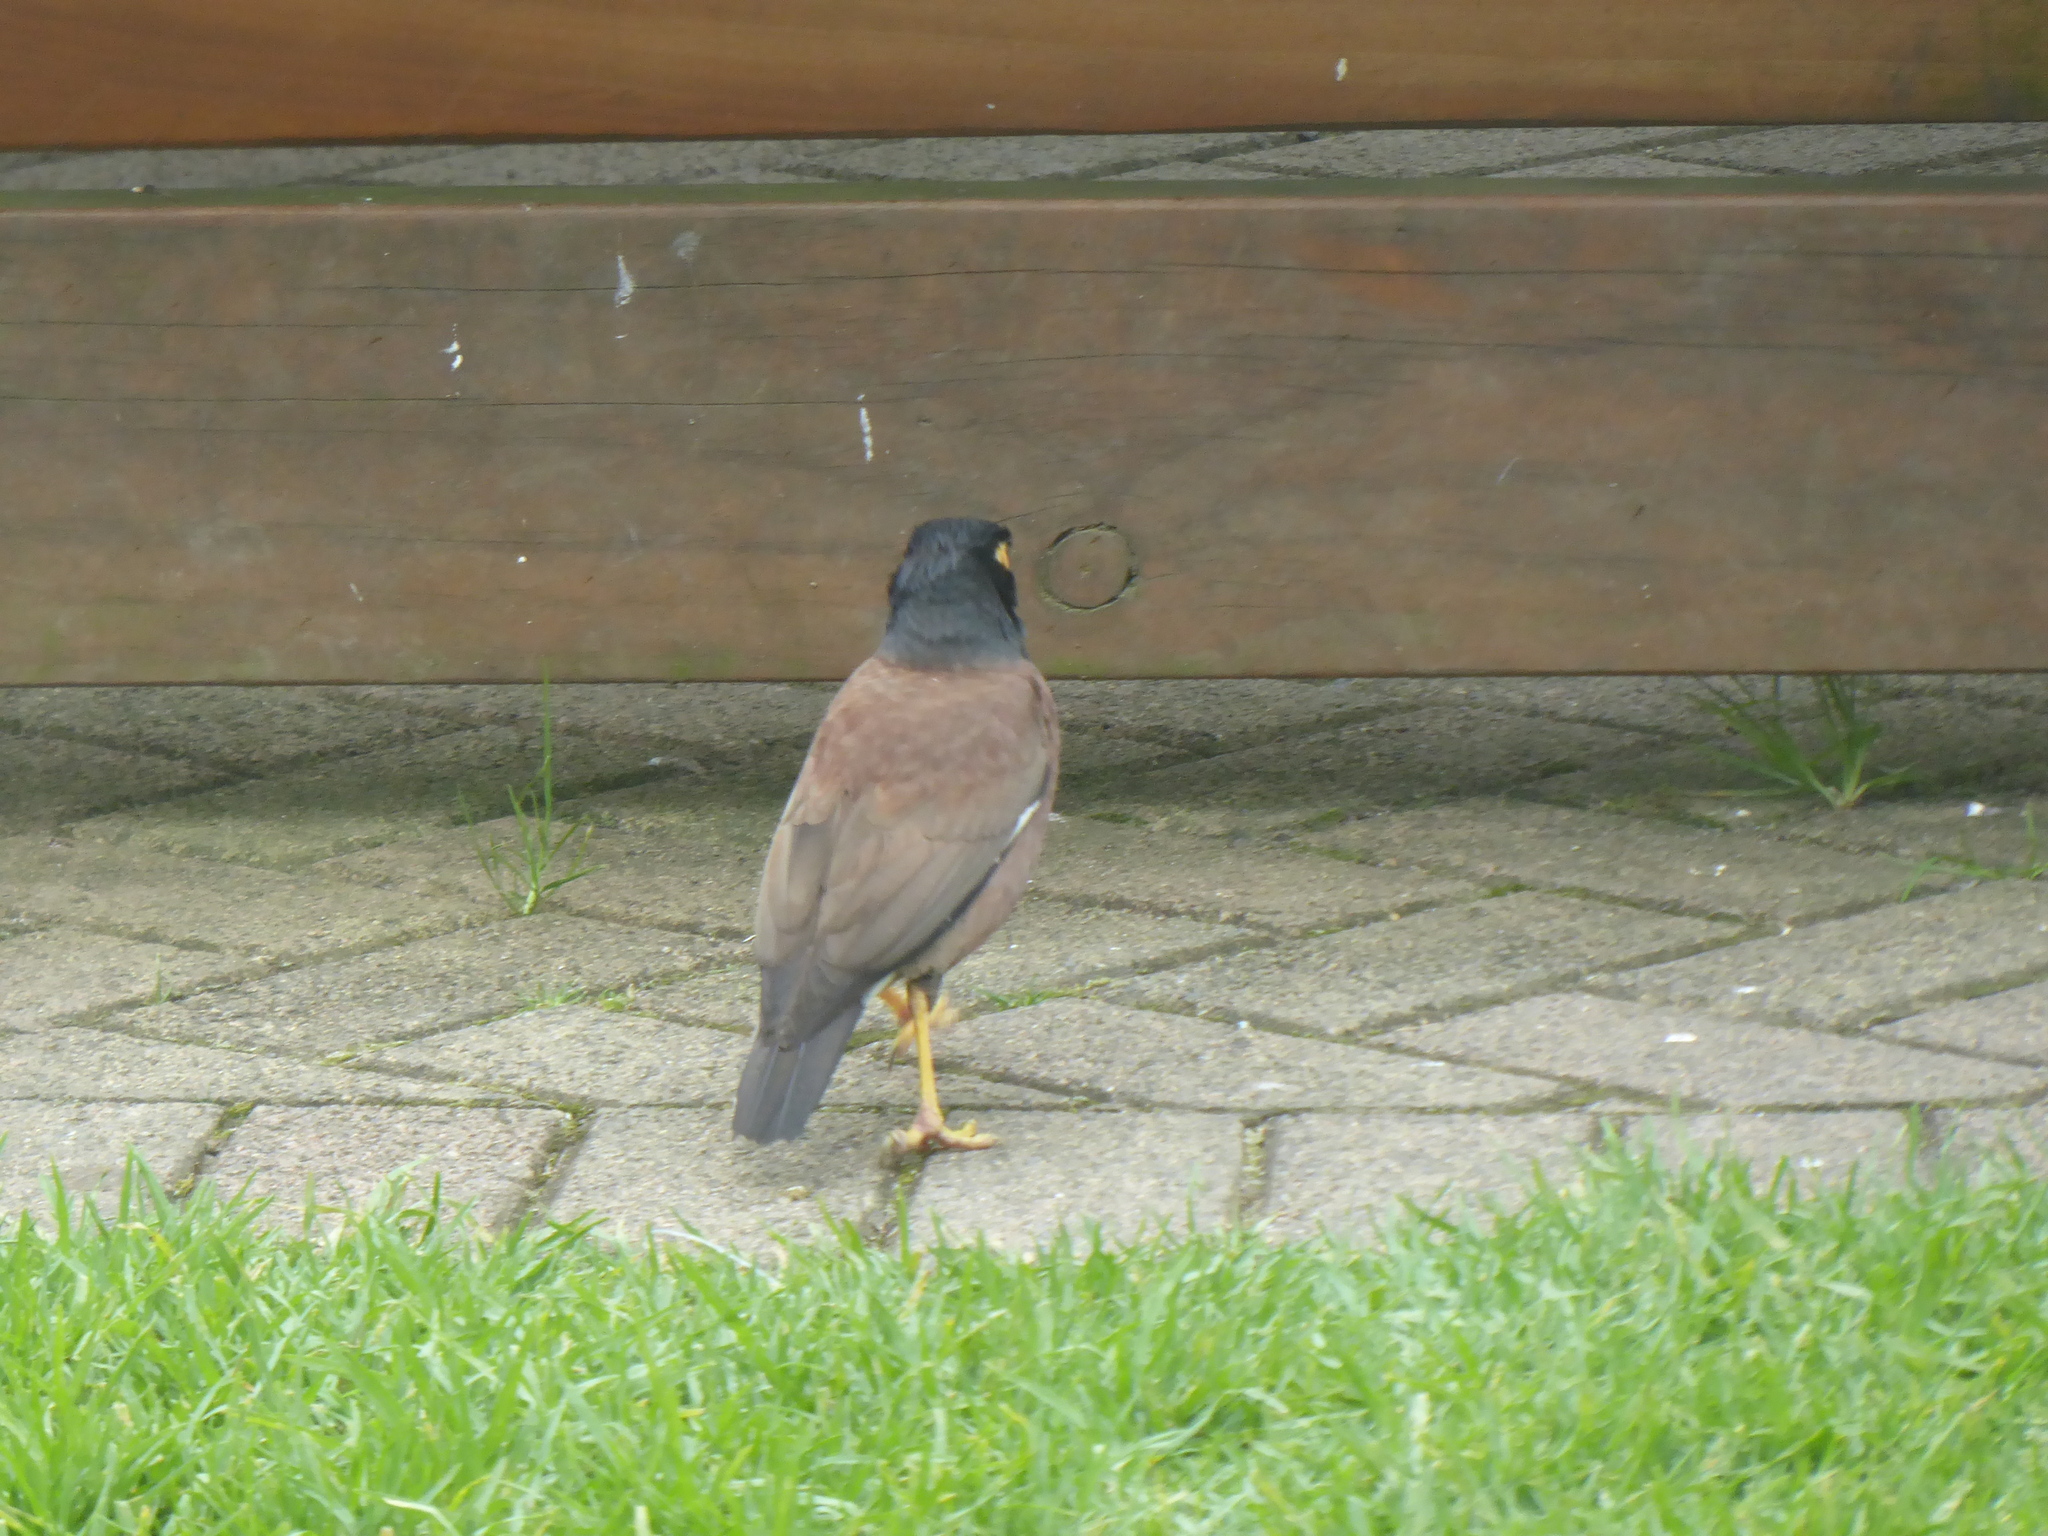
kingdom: Animalia
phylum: Chordata
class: Aves
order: Passeriformes
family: Sturnidae
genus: Acridotheres
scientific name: Acridotheres tristis
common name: Common myna
